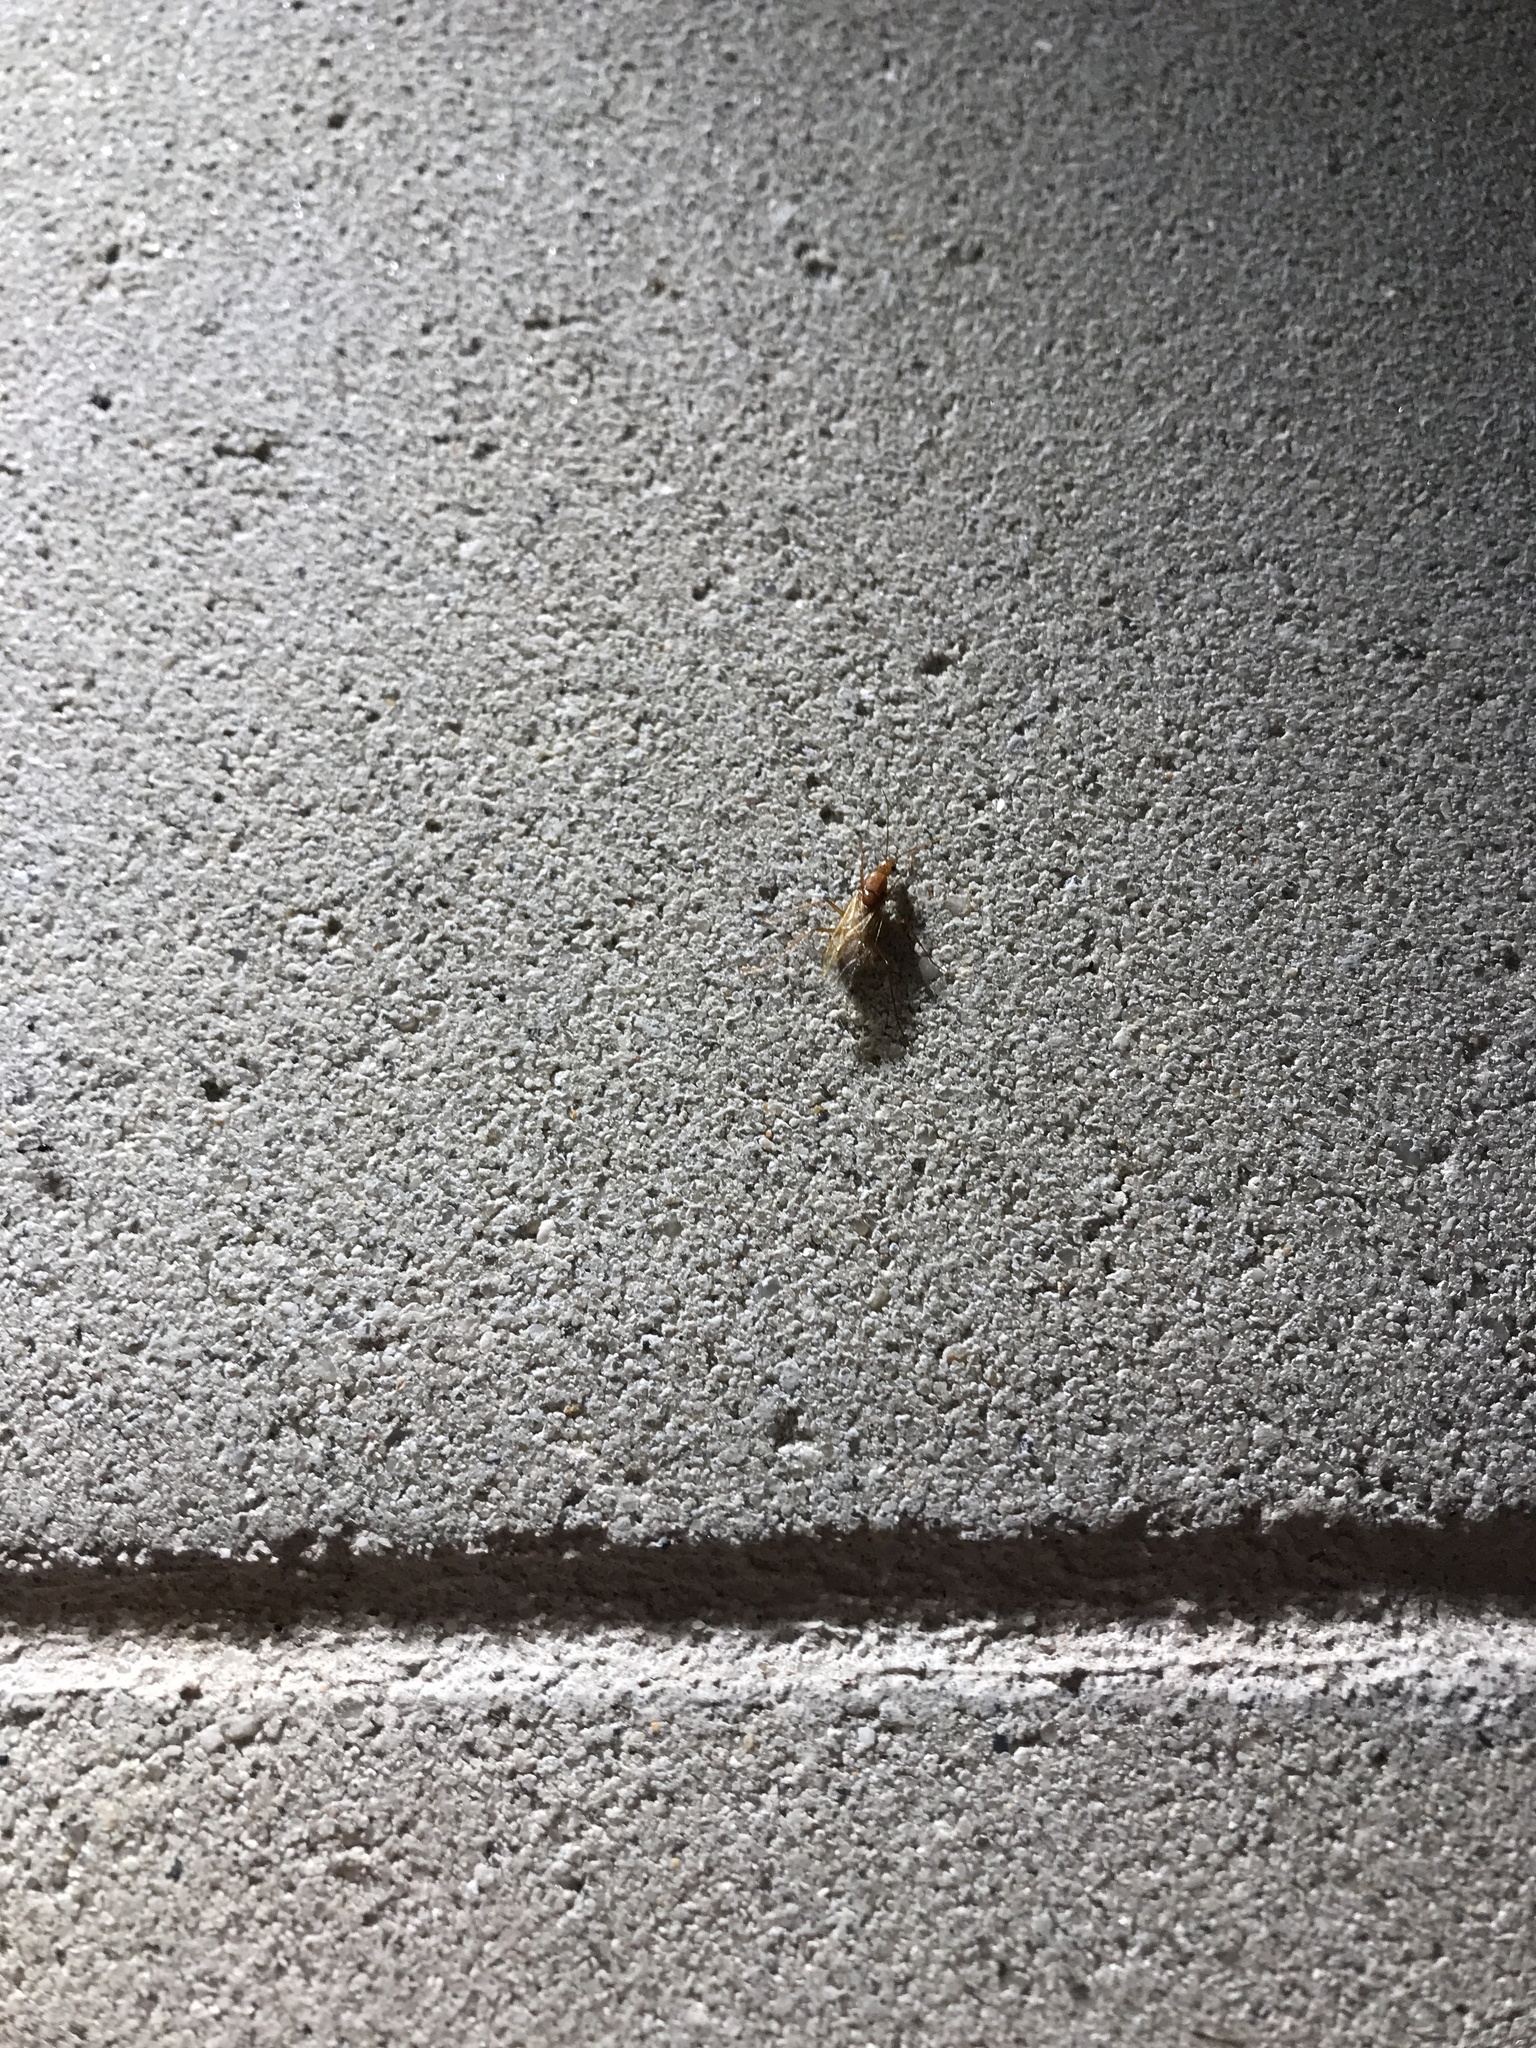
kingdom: Animalia
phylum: Arthropoda
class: Insecta
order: Hymenoptera
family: Formicidae
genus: Camponotus
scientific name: Camponotus castaneus
